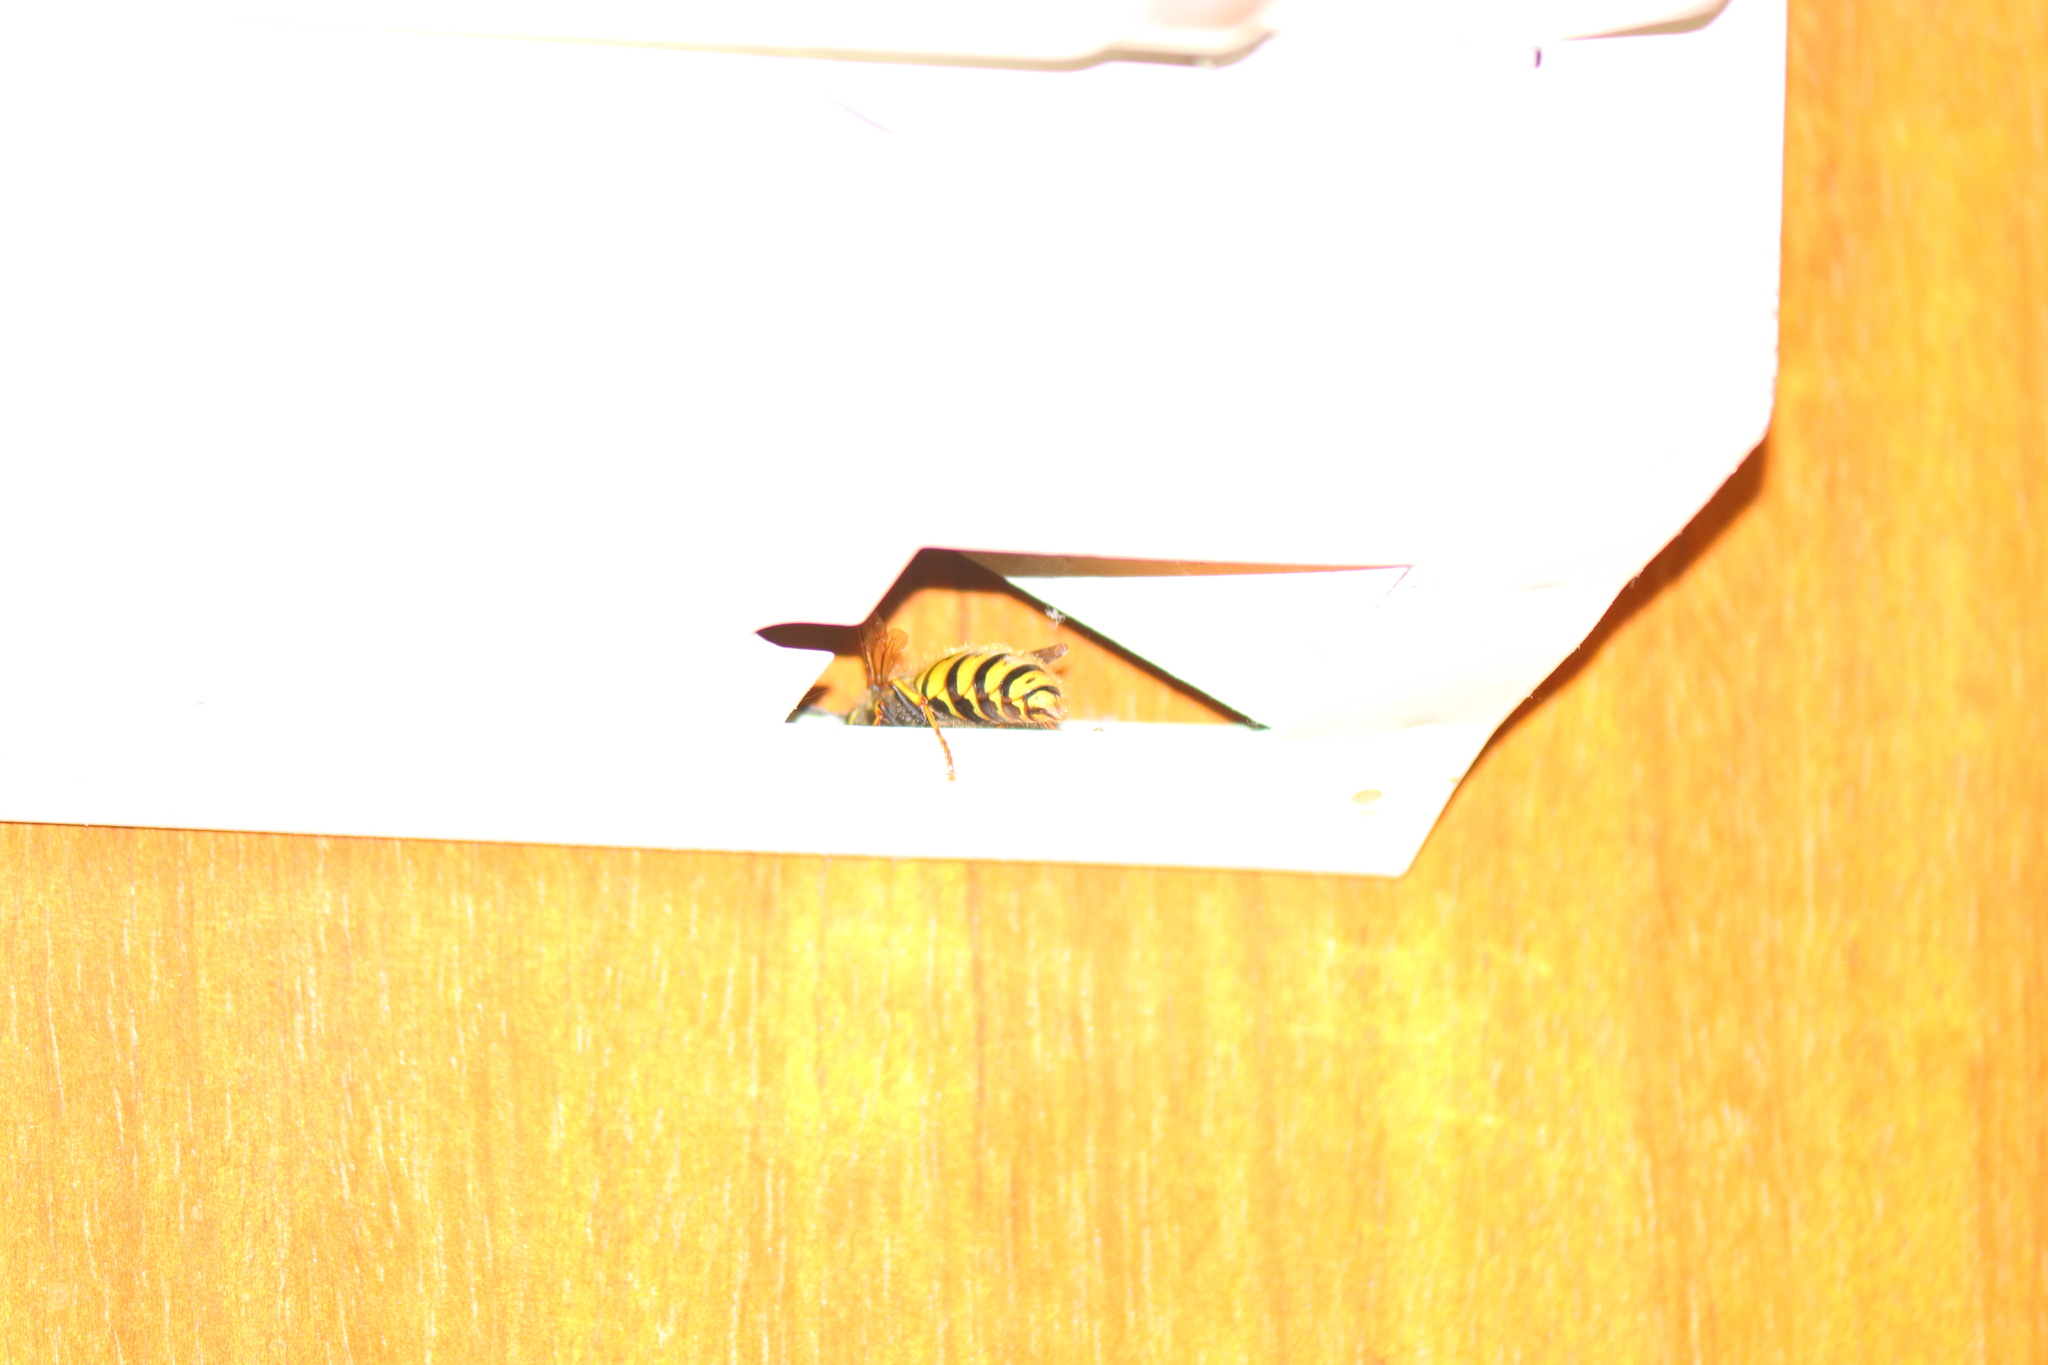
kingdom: Animalia
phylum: Arthropoda
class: Insecta
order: Hymenoptera
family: Vespidae
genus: Vespula
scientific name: Vespula vulgaris
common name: Common wasp
